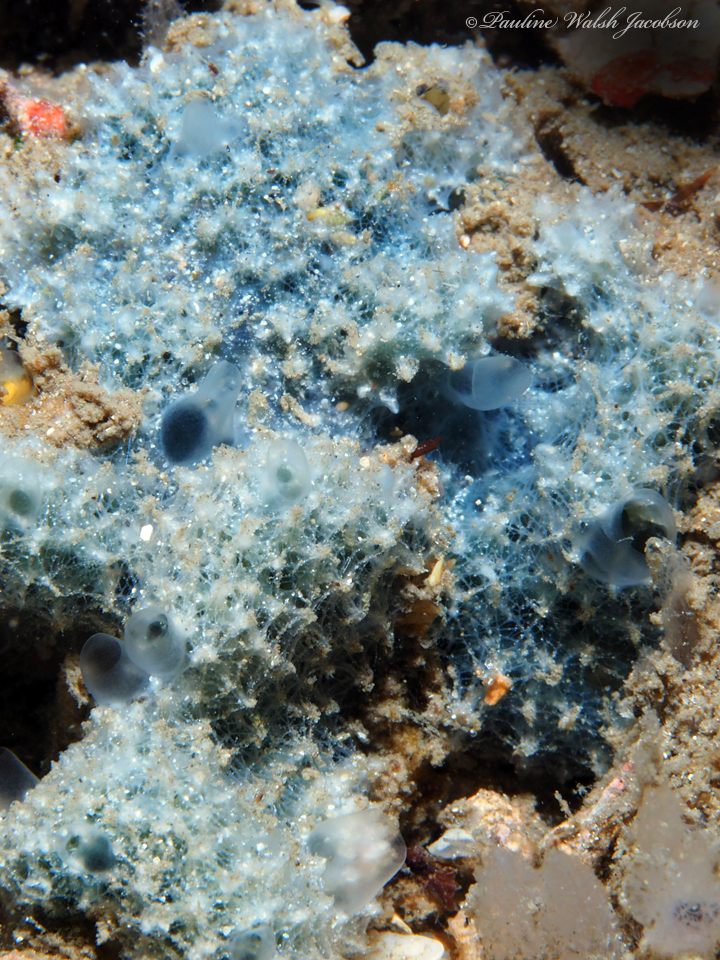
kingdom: Animalia
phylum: Porifera
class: Demospongiae
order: Dictyoceratida
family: Dysideidae
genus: Dysidea
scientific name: Dysidea etheria
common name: Heavenly sponge
